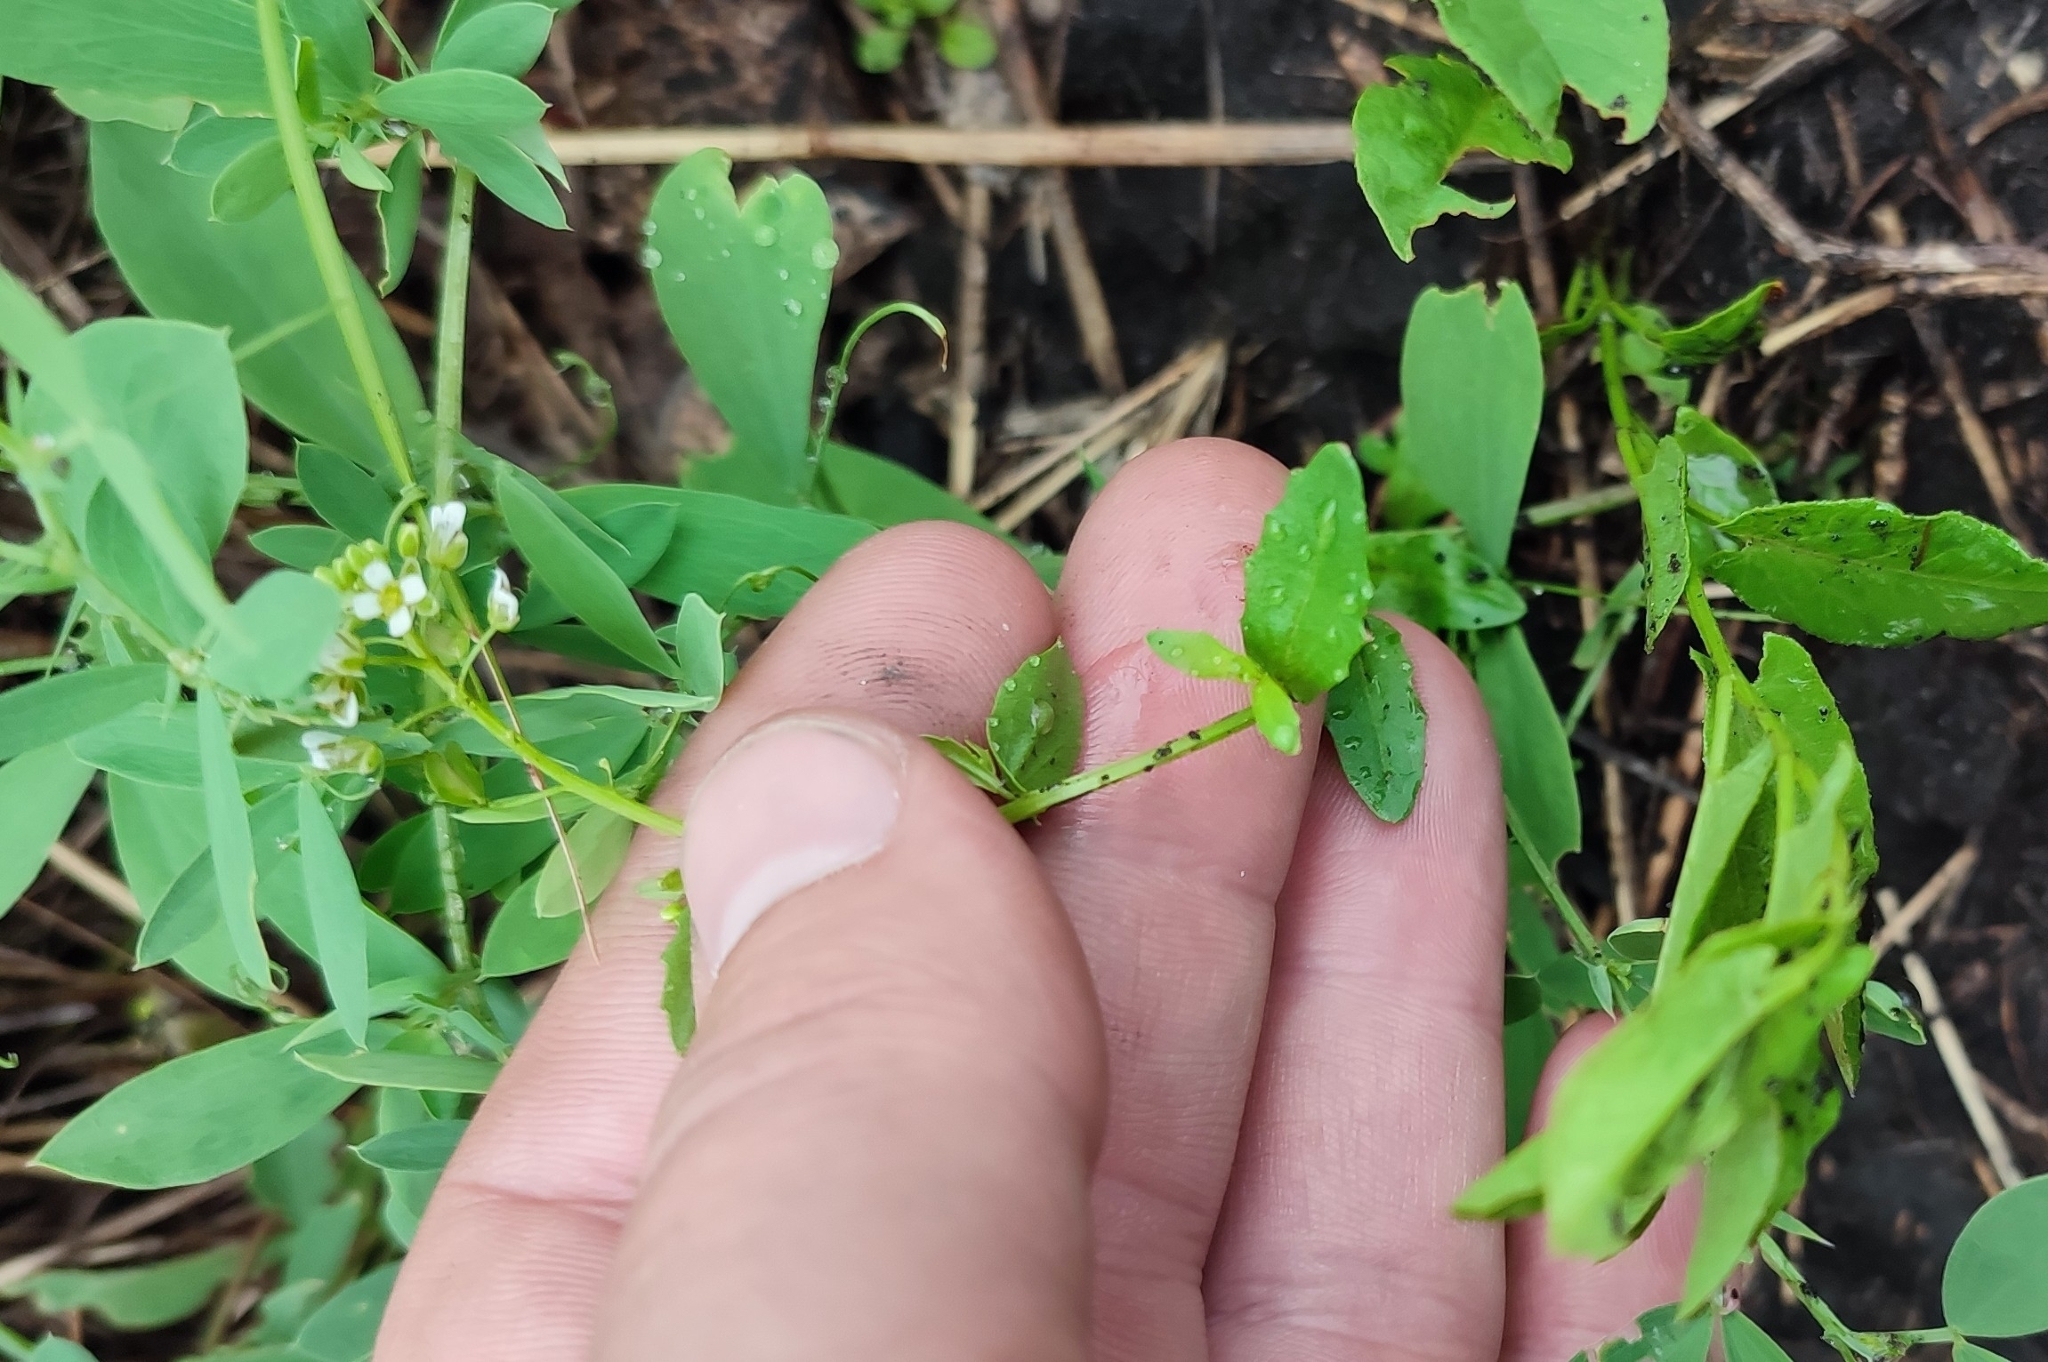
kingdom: Plantae
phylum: Tracheophyta
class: Magnoliopsida
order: Brassicales
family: Brassicaceae
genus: Thlaspi
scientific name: Thlaspi arvense
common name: Field pennycress
